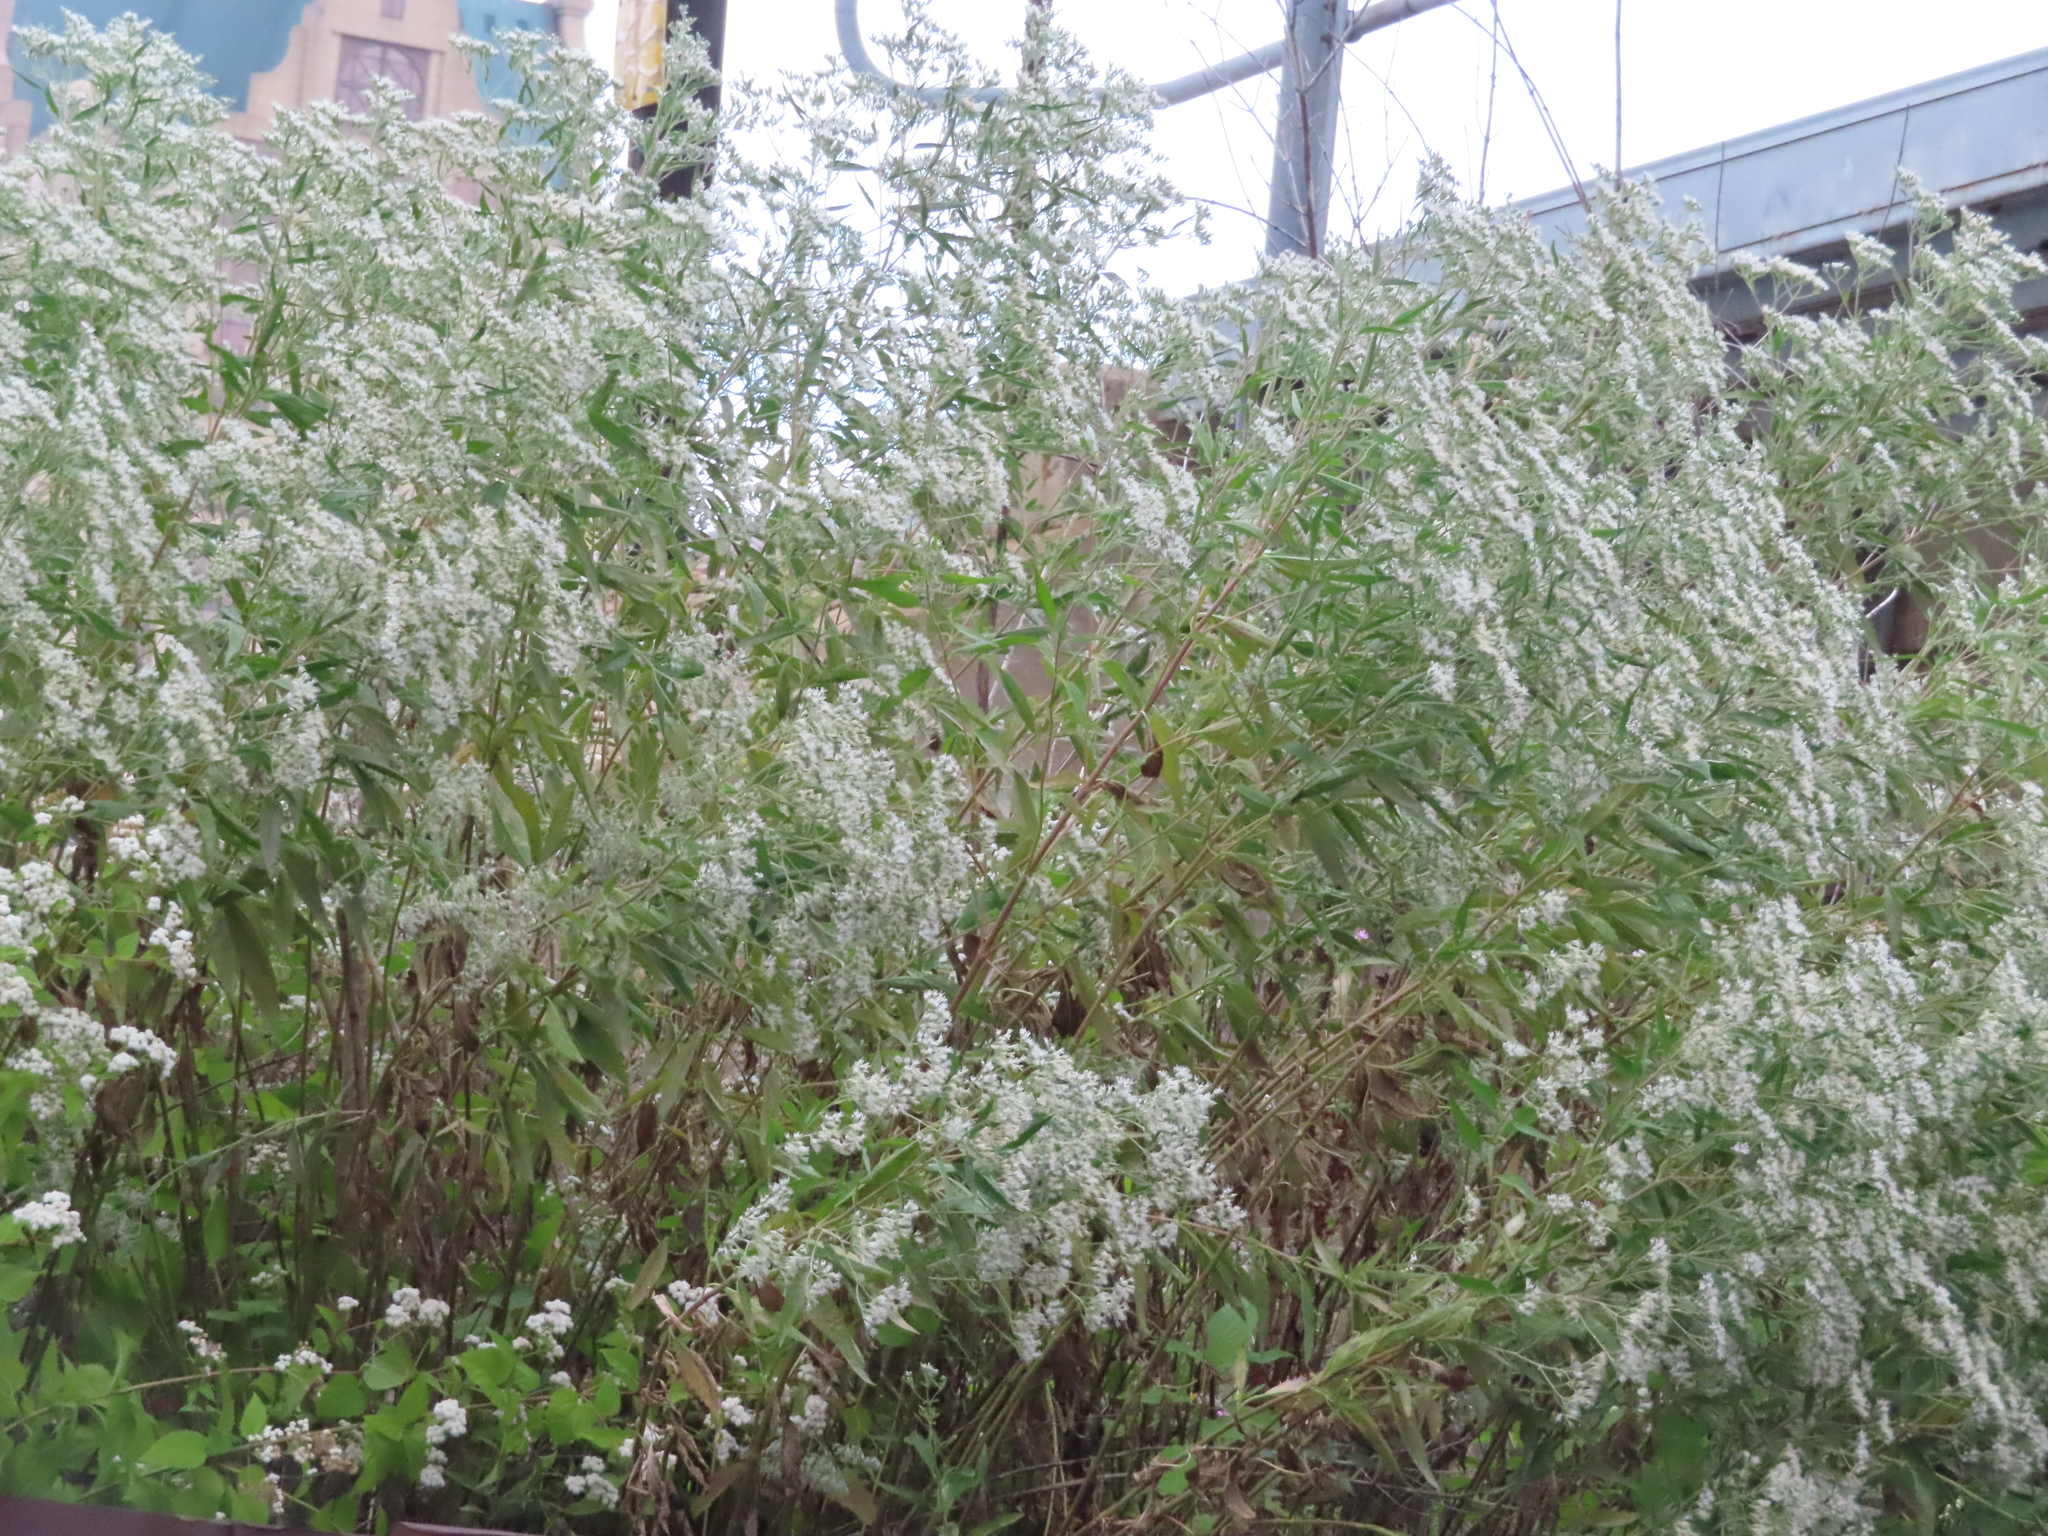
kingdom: Plantae
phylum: Tracheophyta
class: Magnoliopsida
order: Asterales
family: Asteraceae
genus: Eupatorium
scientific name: Eupatorium serotinum
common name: Late boneset
